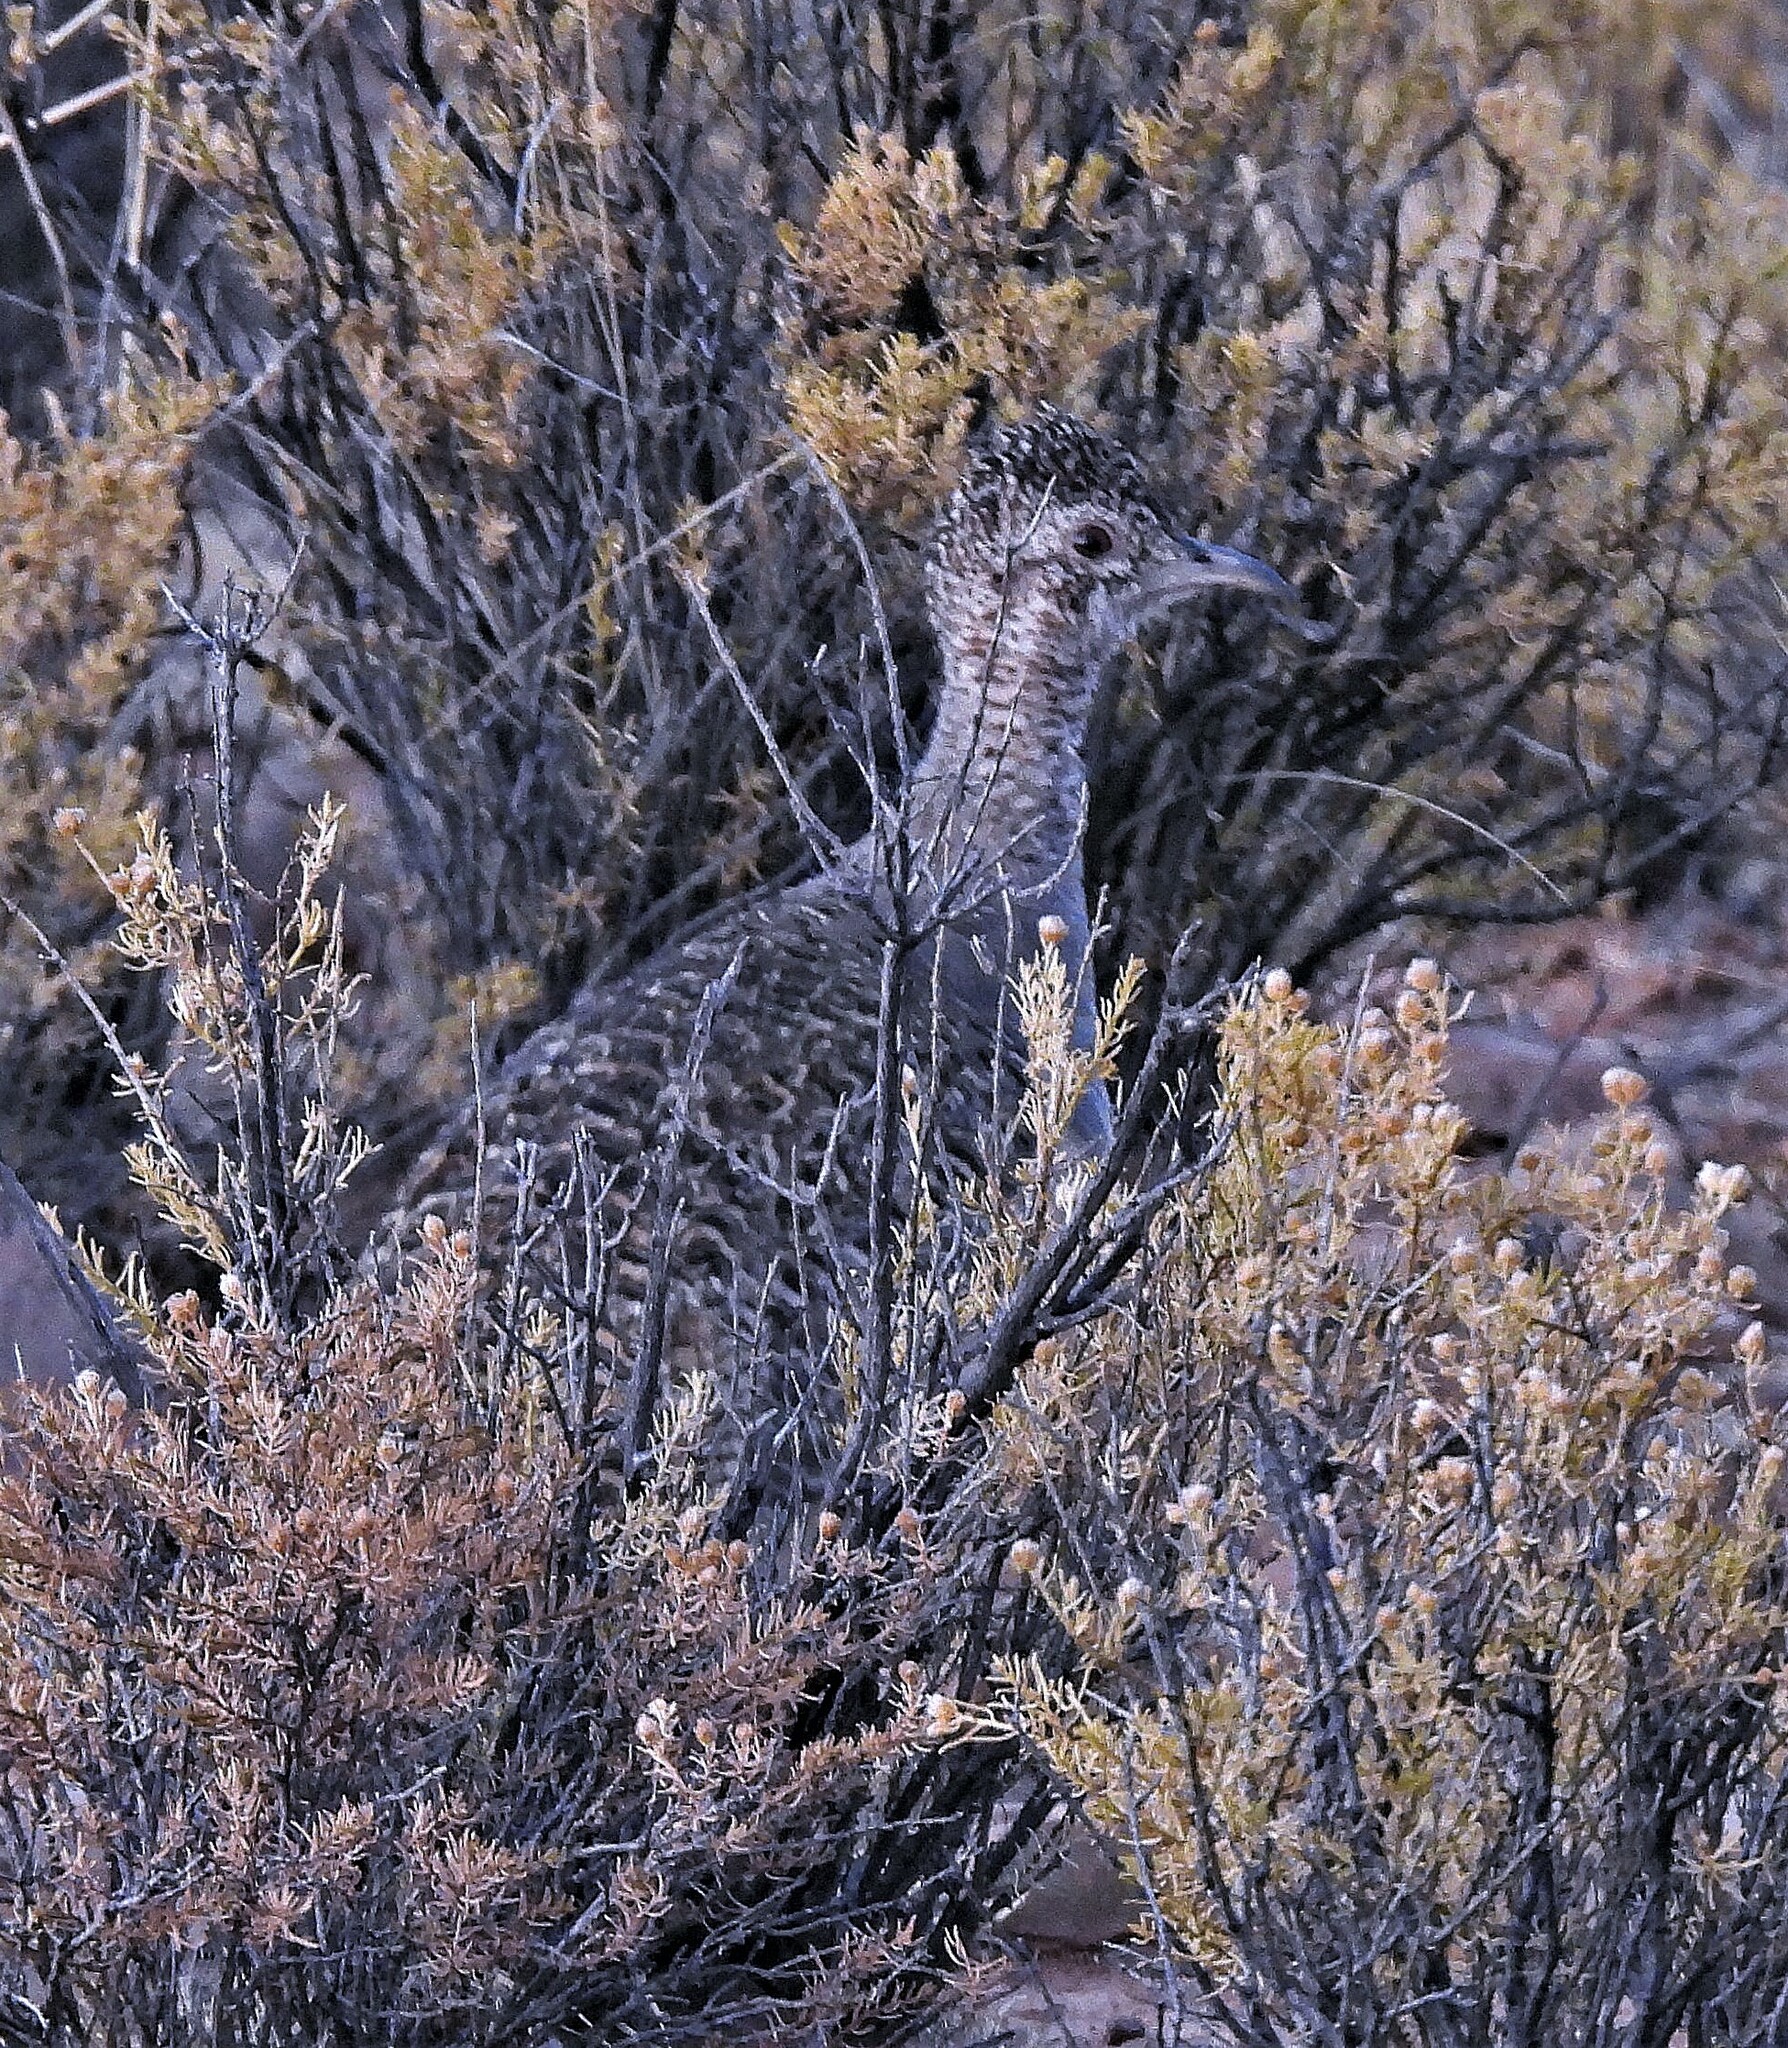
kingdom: Animalia
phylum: Chordata
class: Aves
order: Tinamiformes
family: Tinamidae
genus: Nothoprocta
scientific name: Nothoprocta ornata
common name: Ornate tinamou
